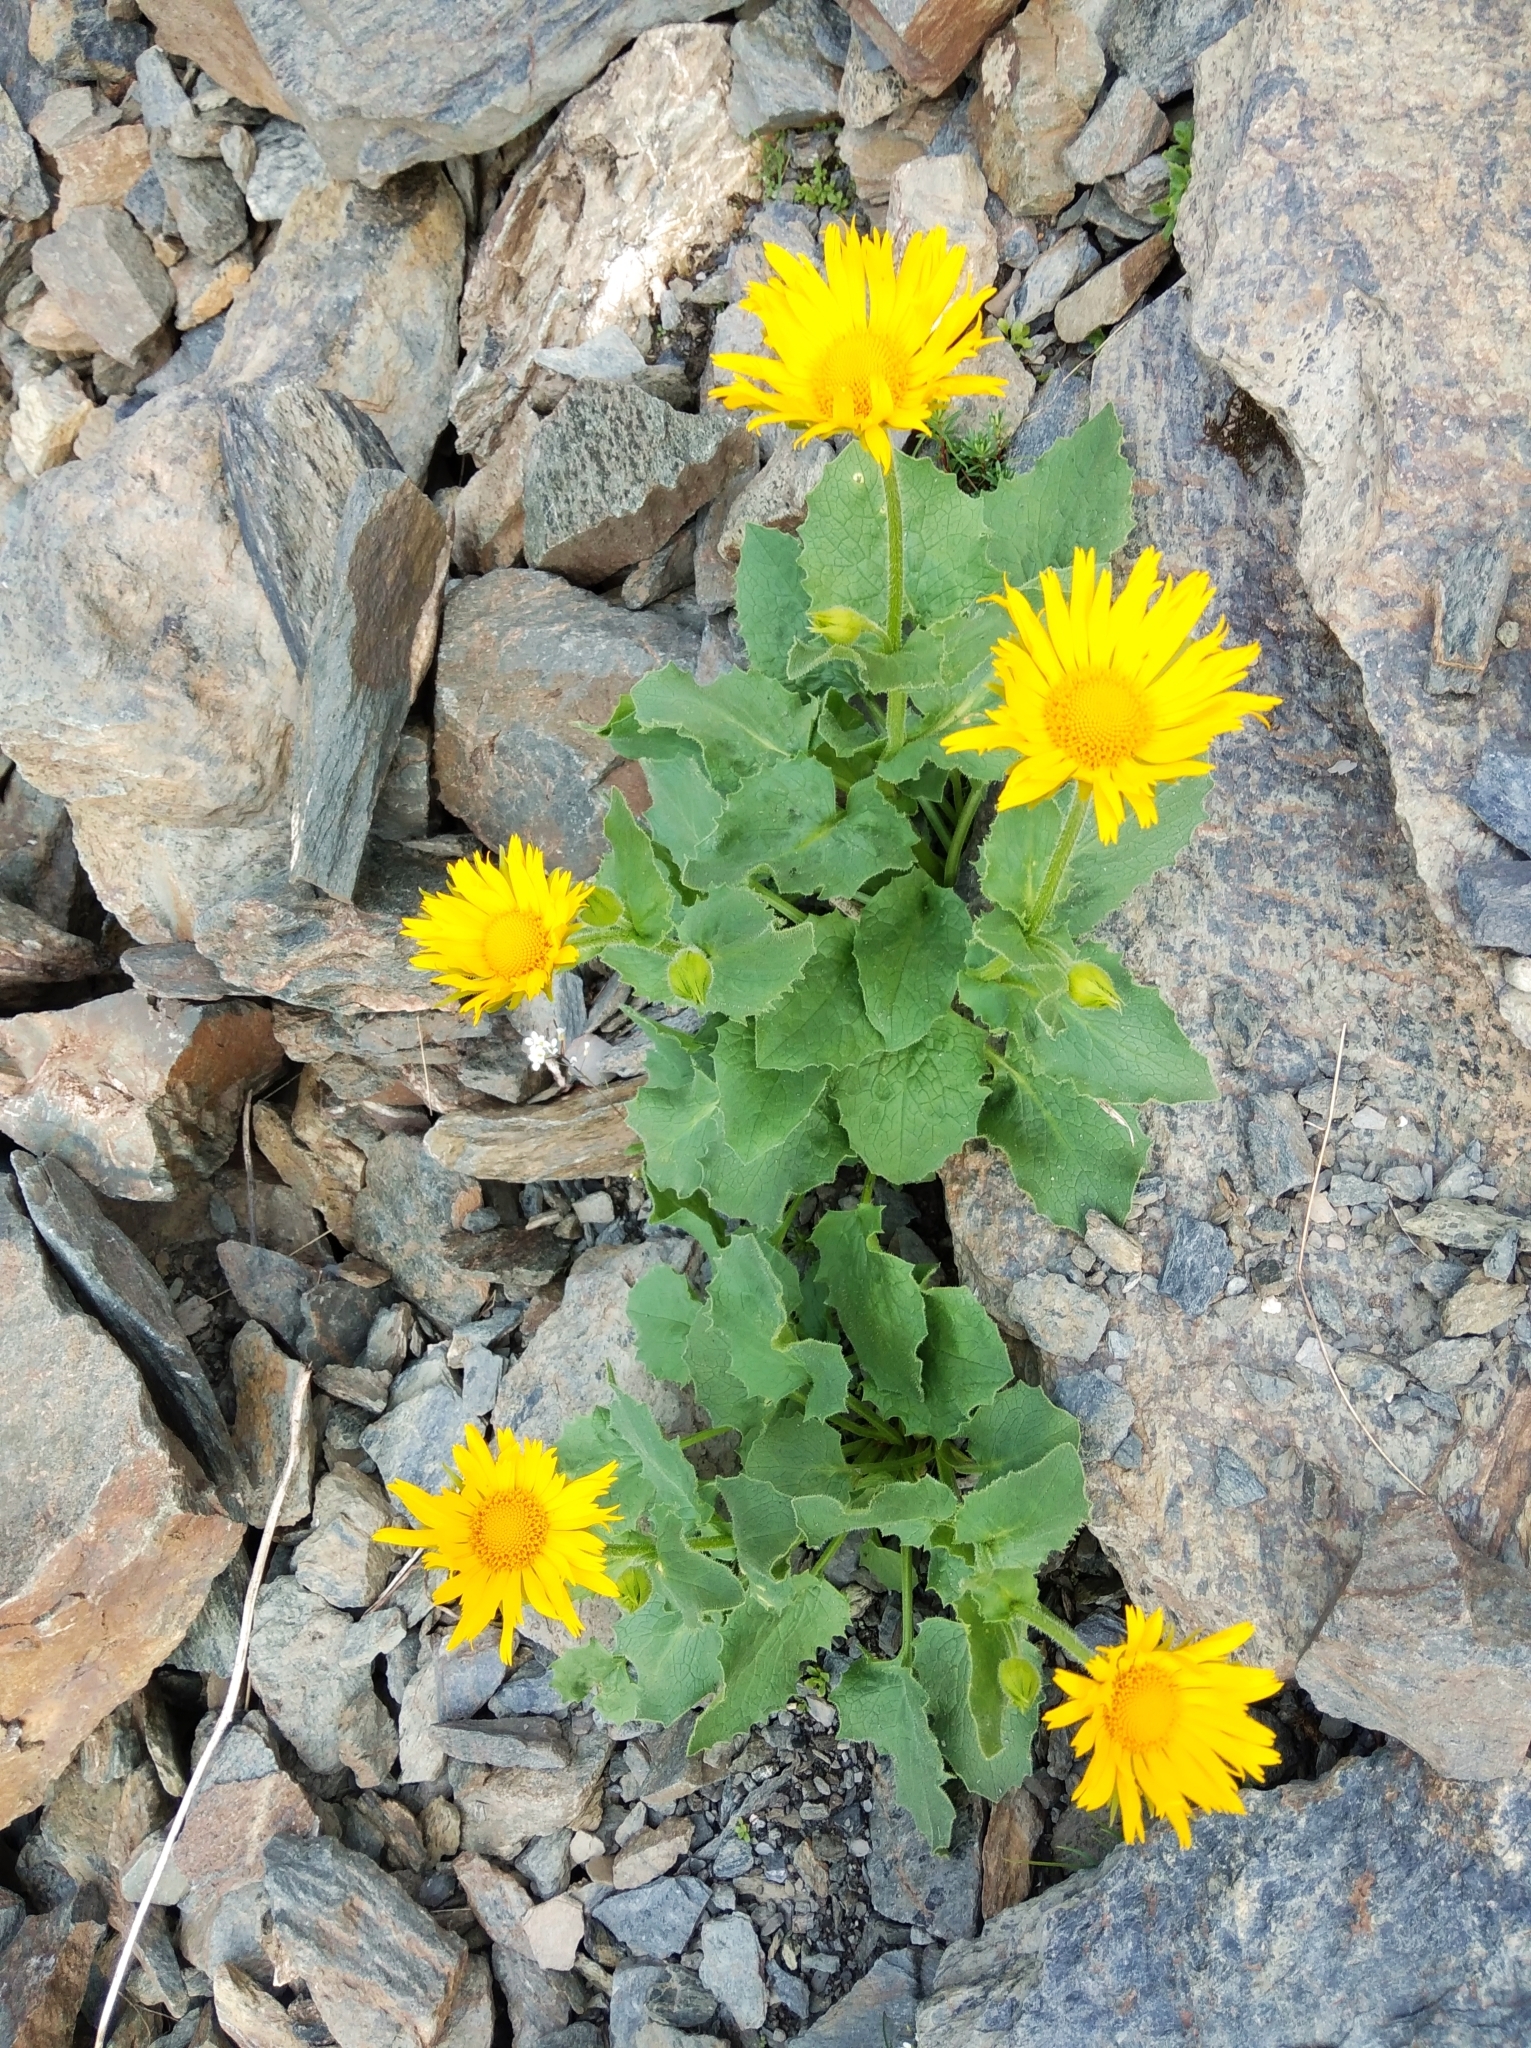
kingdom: Plantae
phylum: Tracheophyta
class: Magnoliopsida
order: Asterales
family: Asteraceae
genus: Doronicum
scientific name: Doronicum grandiflorum
